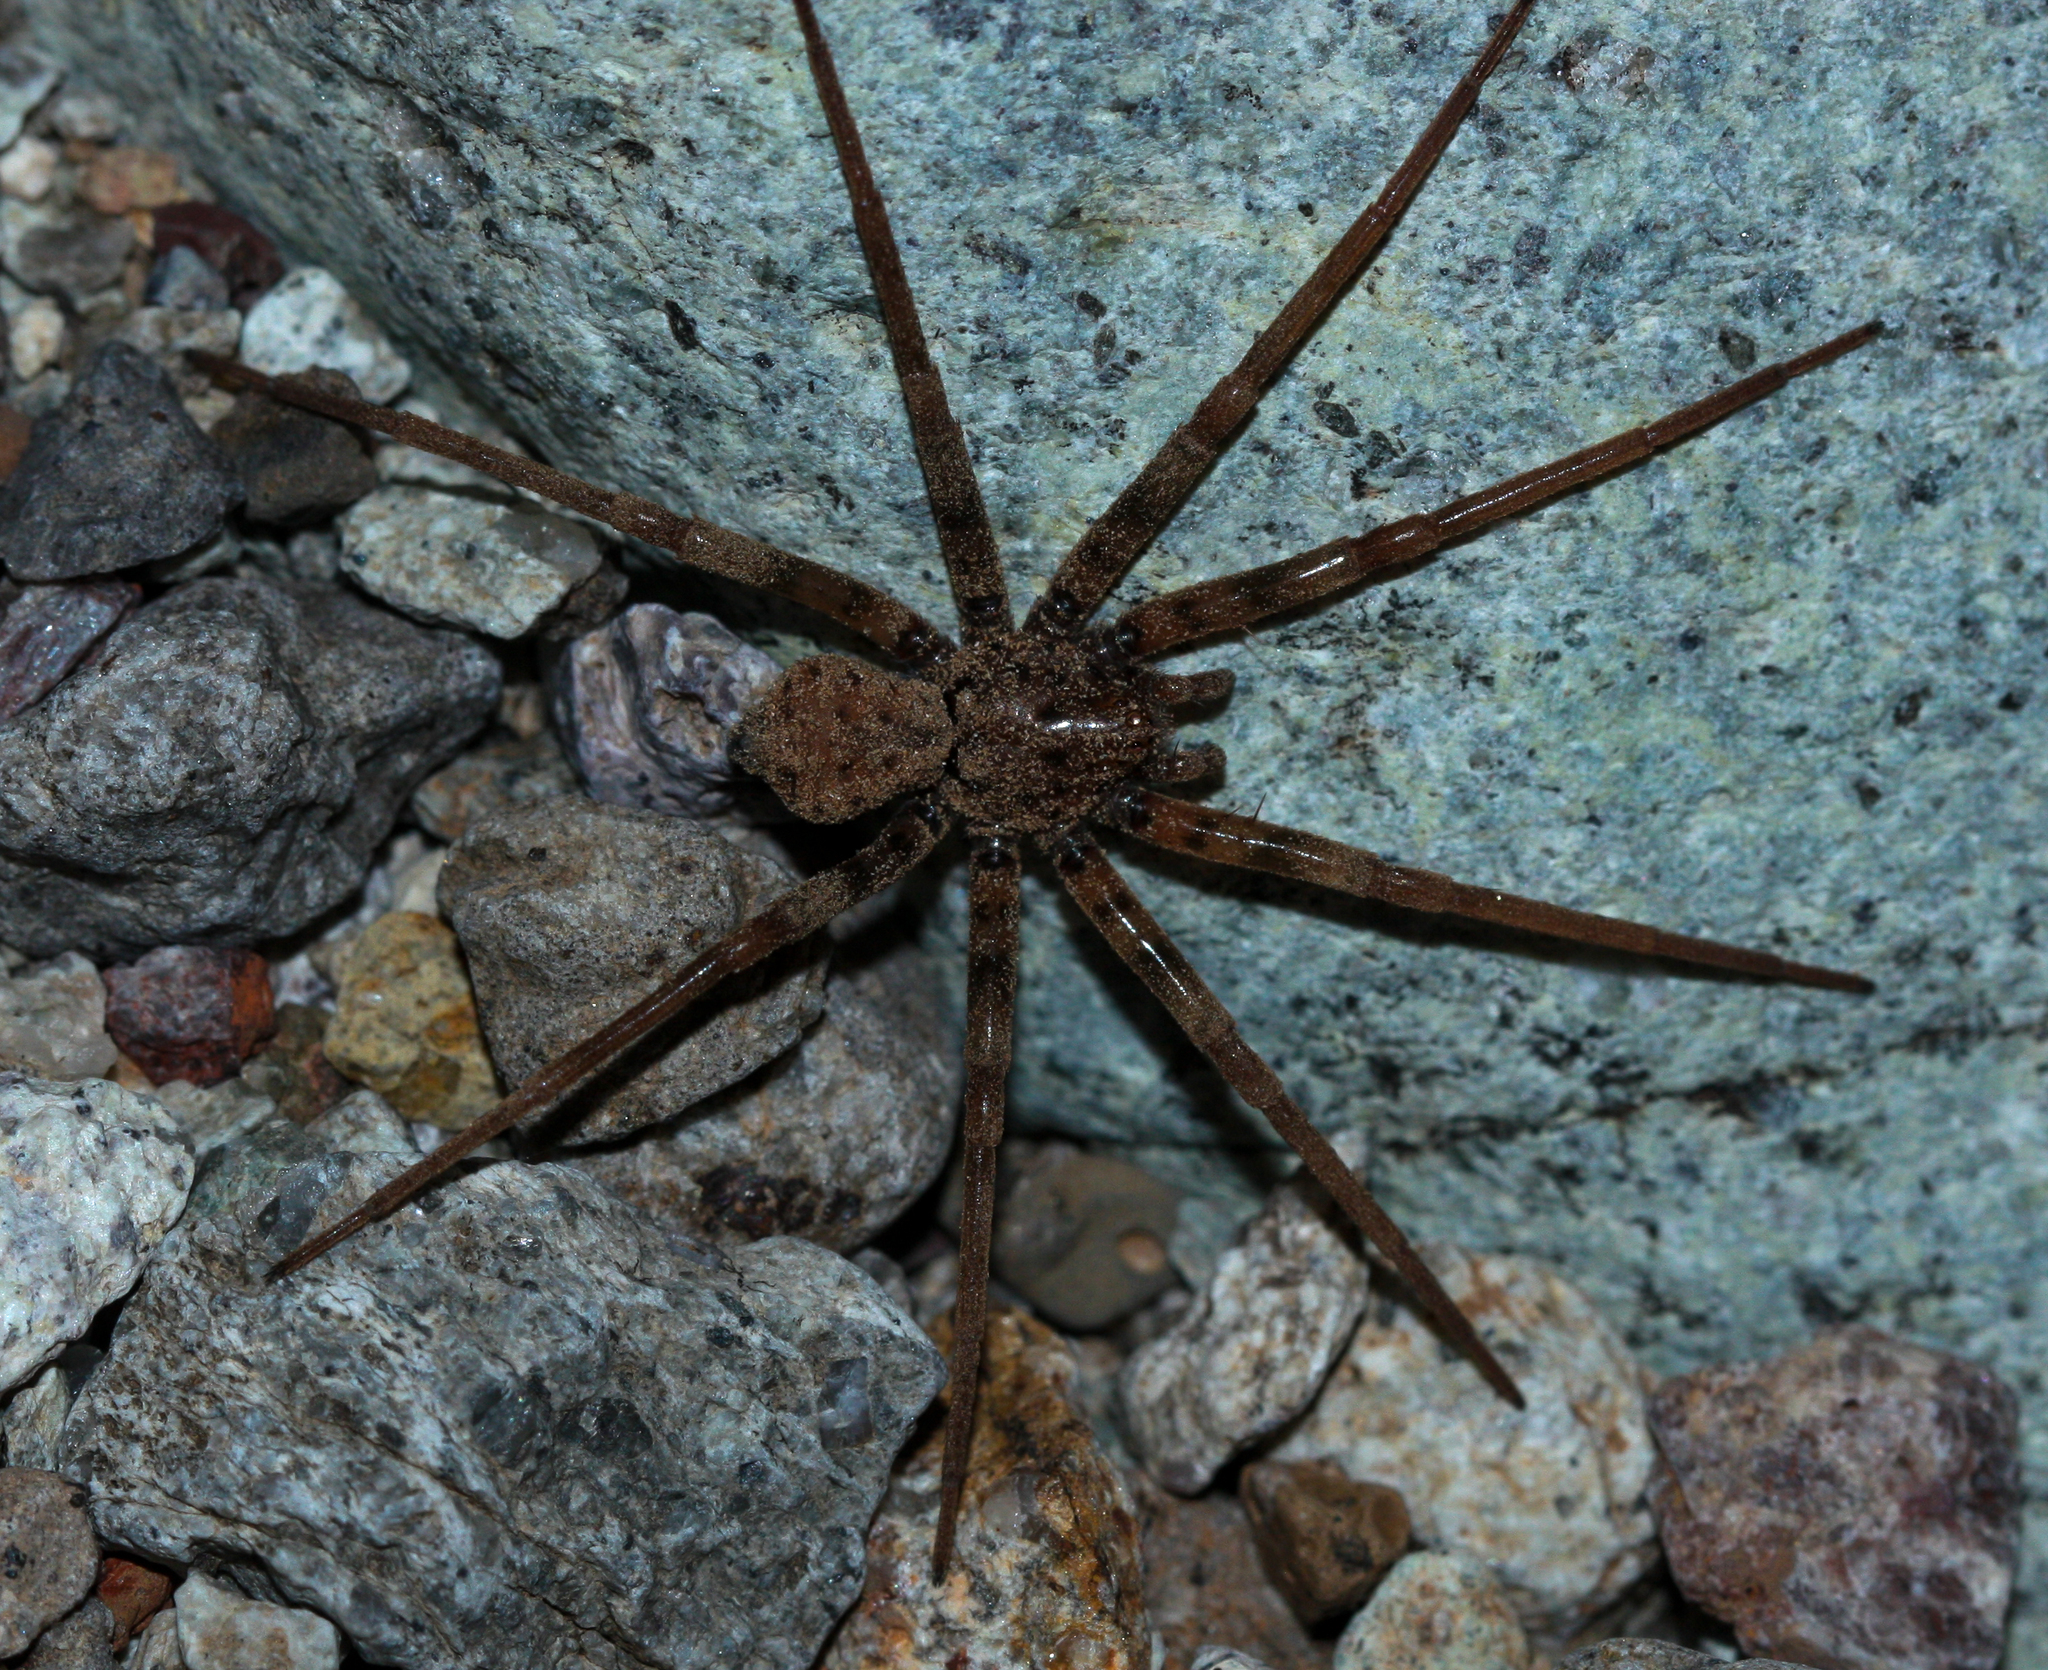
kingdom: Animalia
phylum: Arthropoda
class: Arachnida
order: Araneae
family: Homalonychidae
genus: Homalonychus
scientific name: Homalonychus selenopoides
